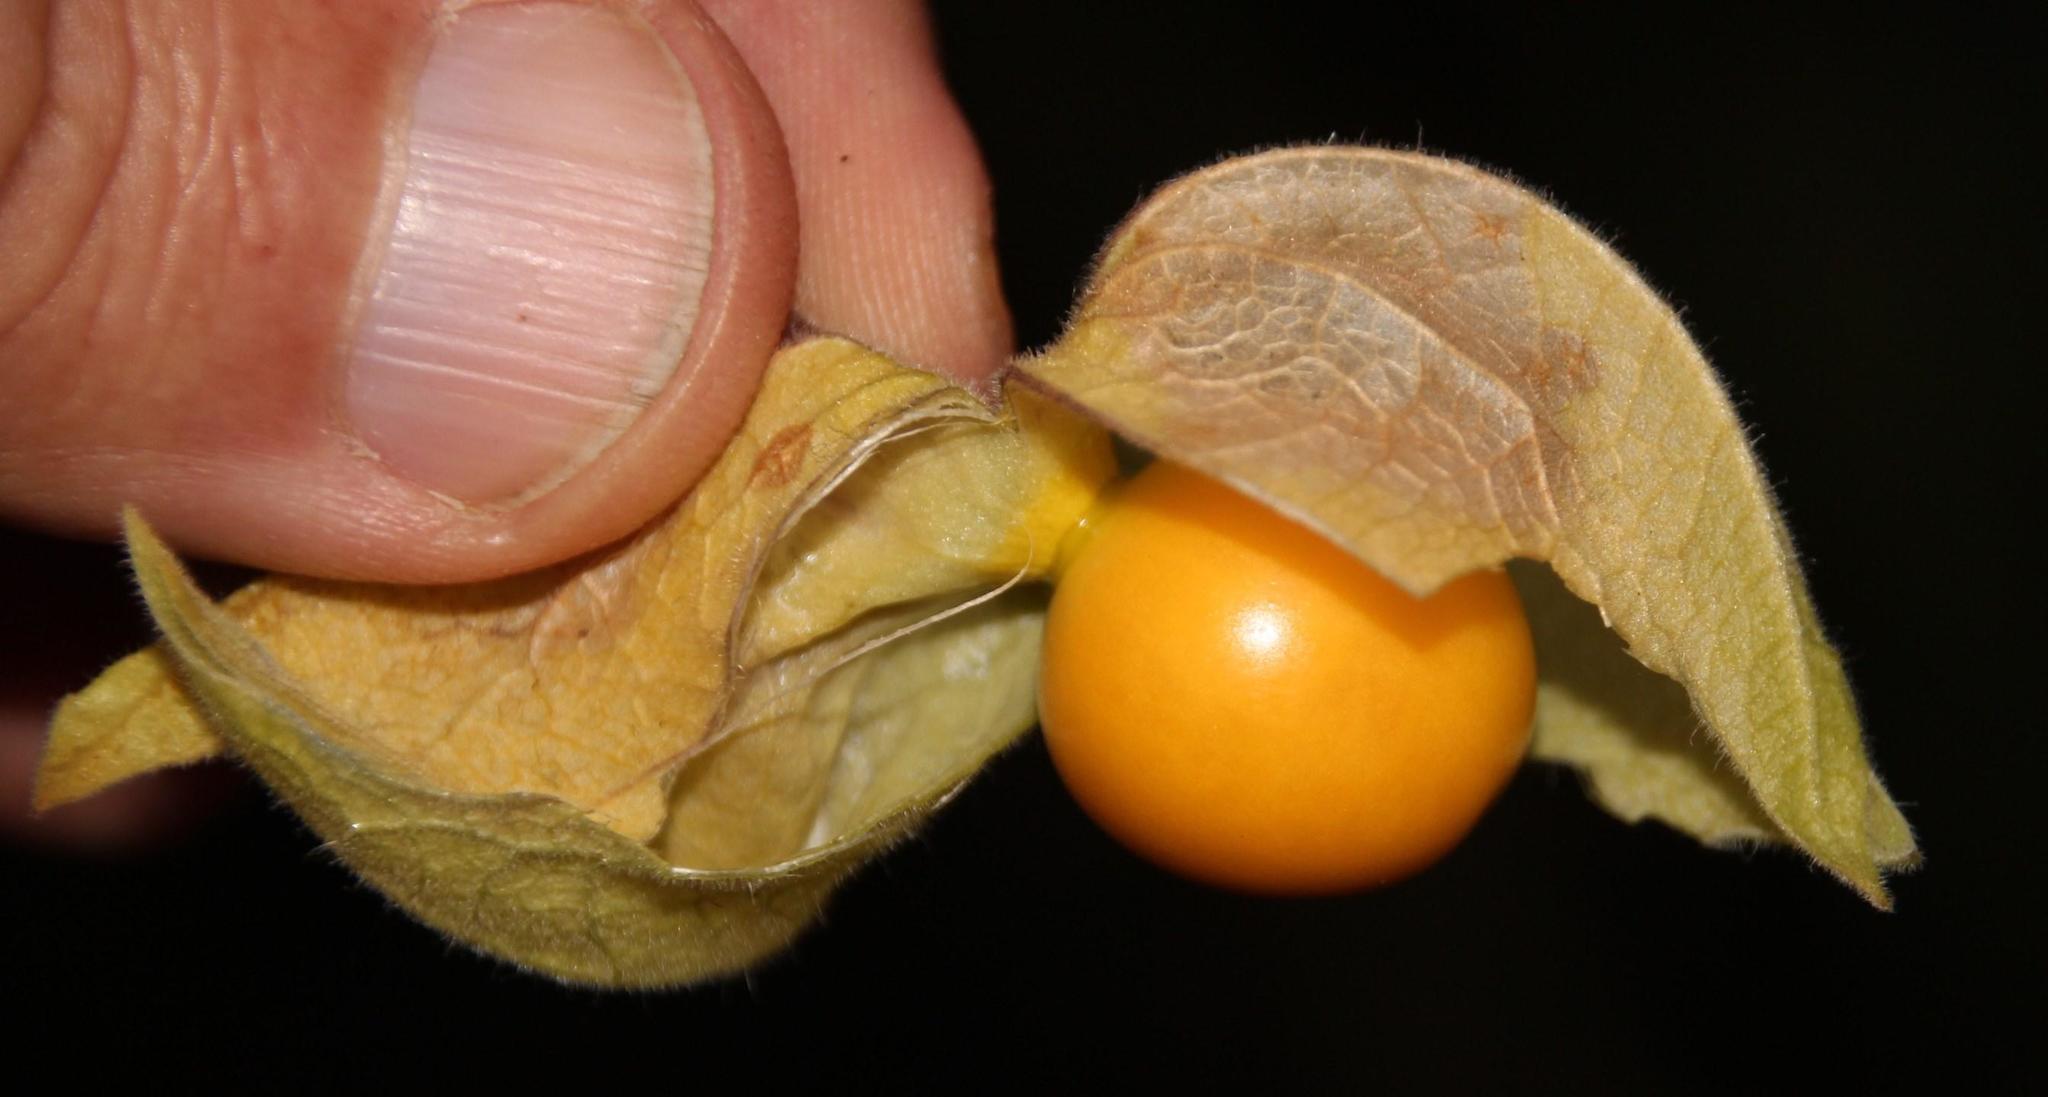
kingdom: Plantae
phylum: Tracheophyta
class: Magnoliopsida
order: Solanales
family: Solanaceae
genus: Physalis
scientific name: Physalis peruviana
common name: Cape-gooseberry
